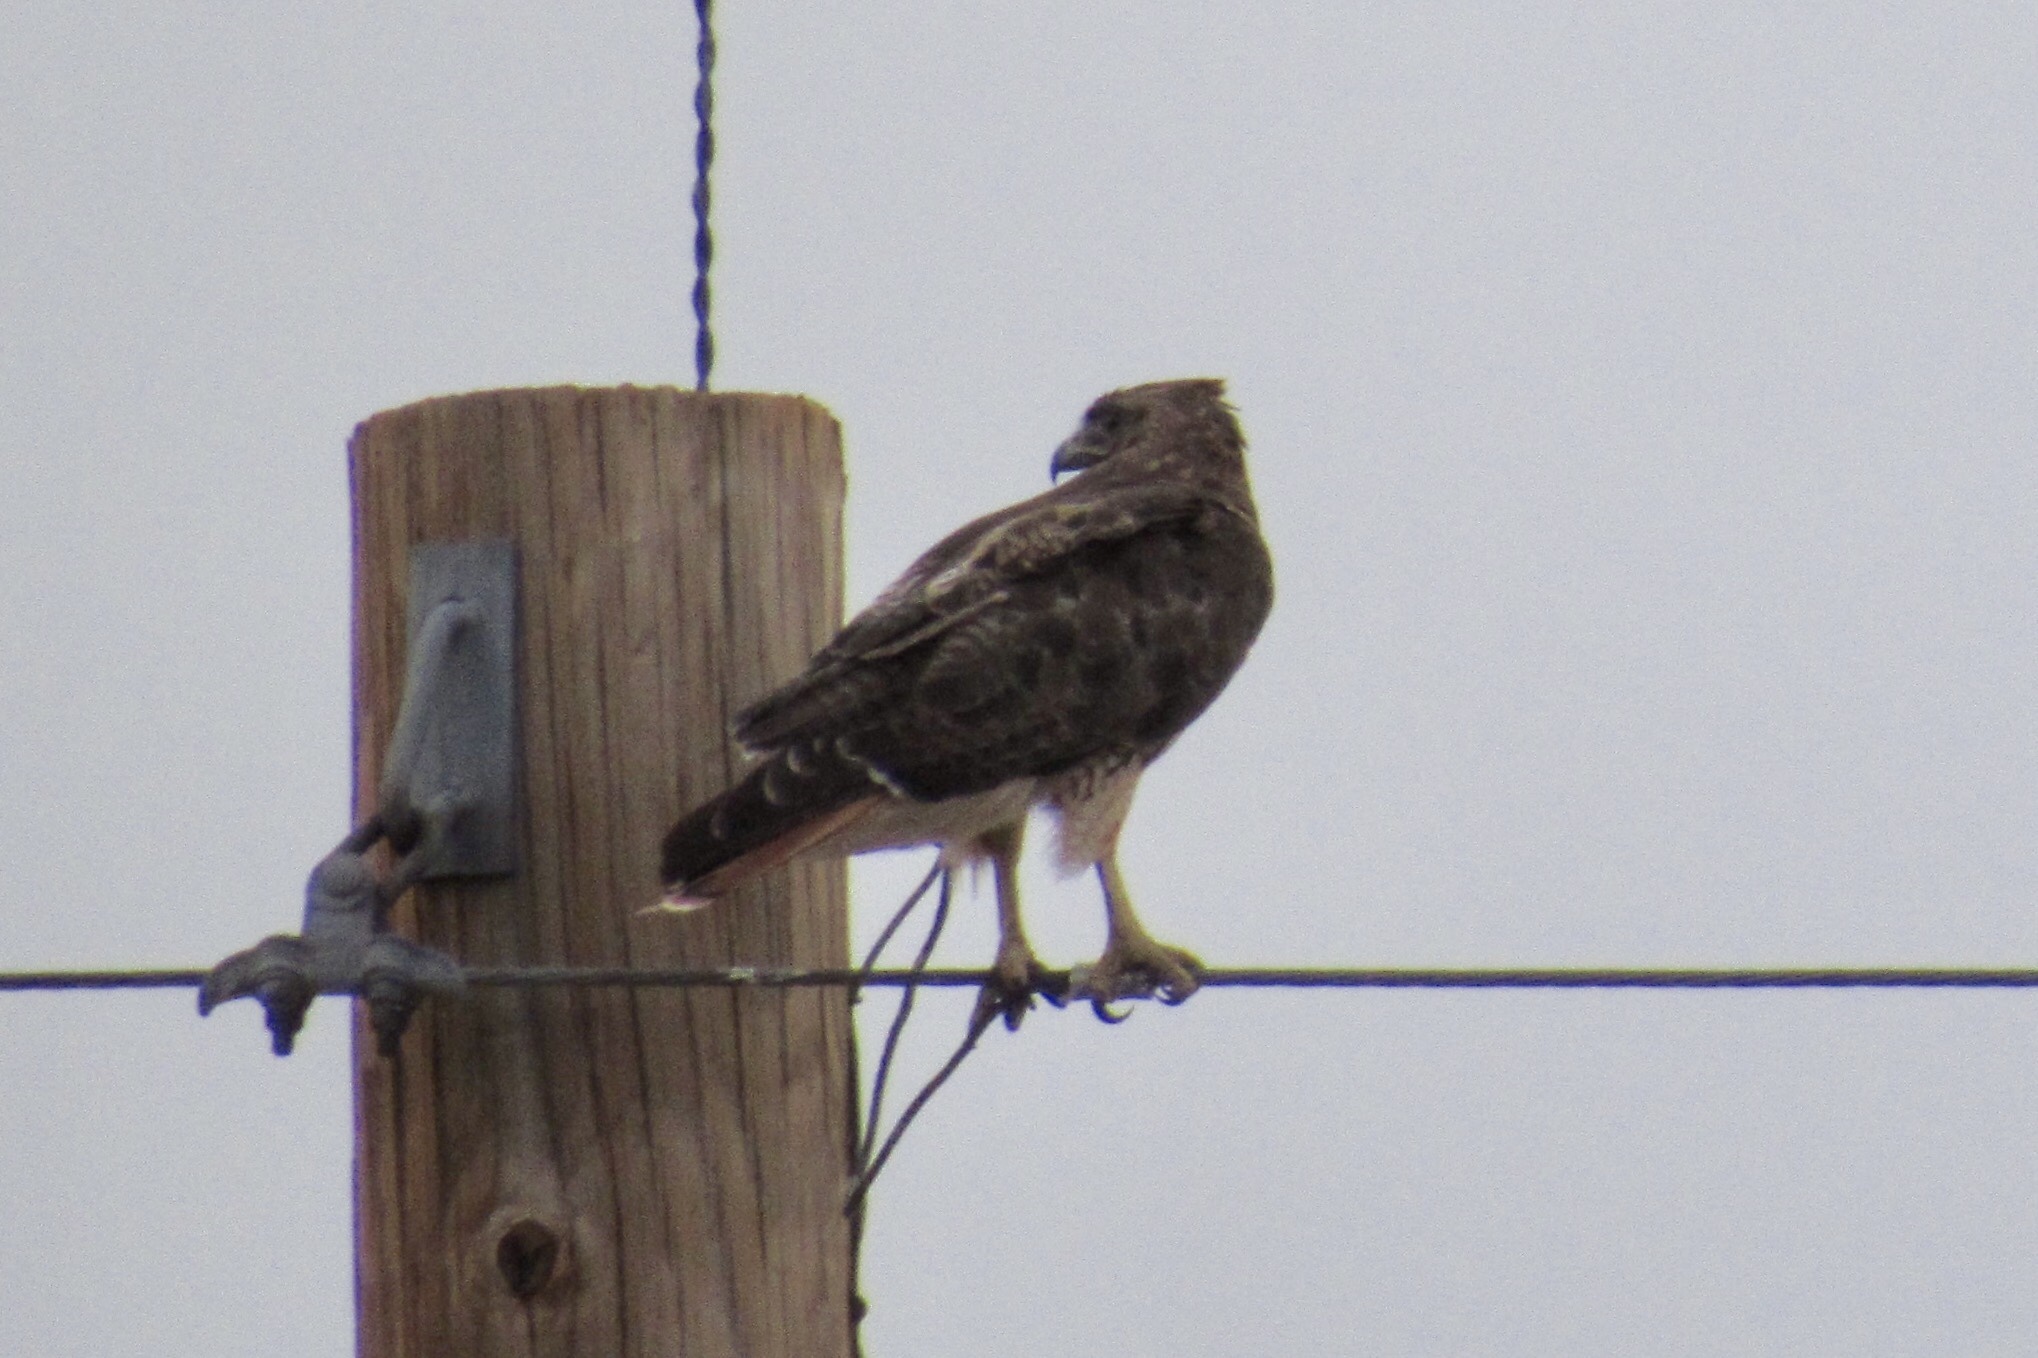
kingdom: Animalia
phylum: Chordata
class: Aves
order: Accipitriformes
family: Accipitridae
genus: Buteo
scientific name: Buteo jamaicensis
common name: Red-tailed hawk
